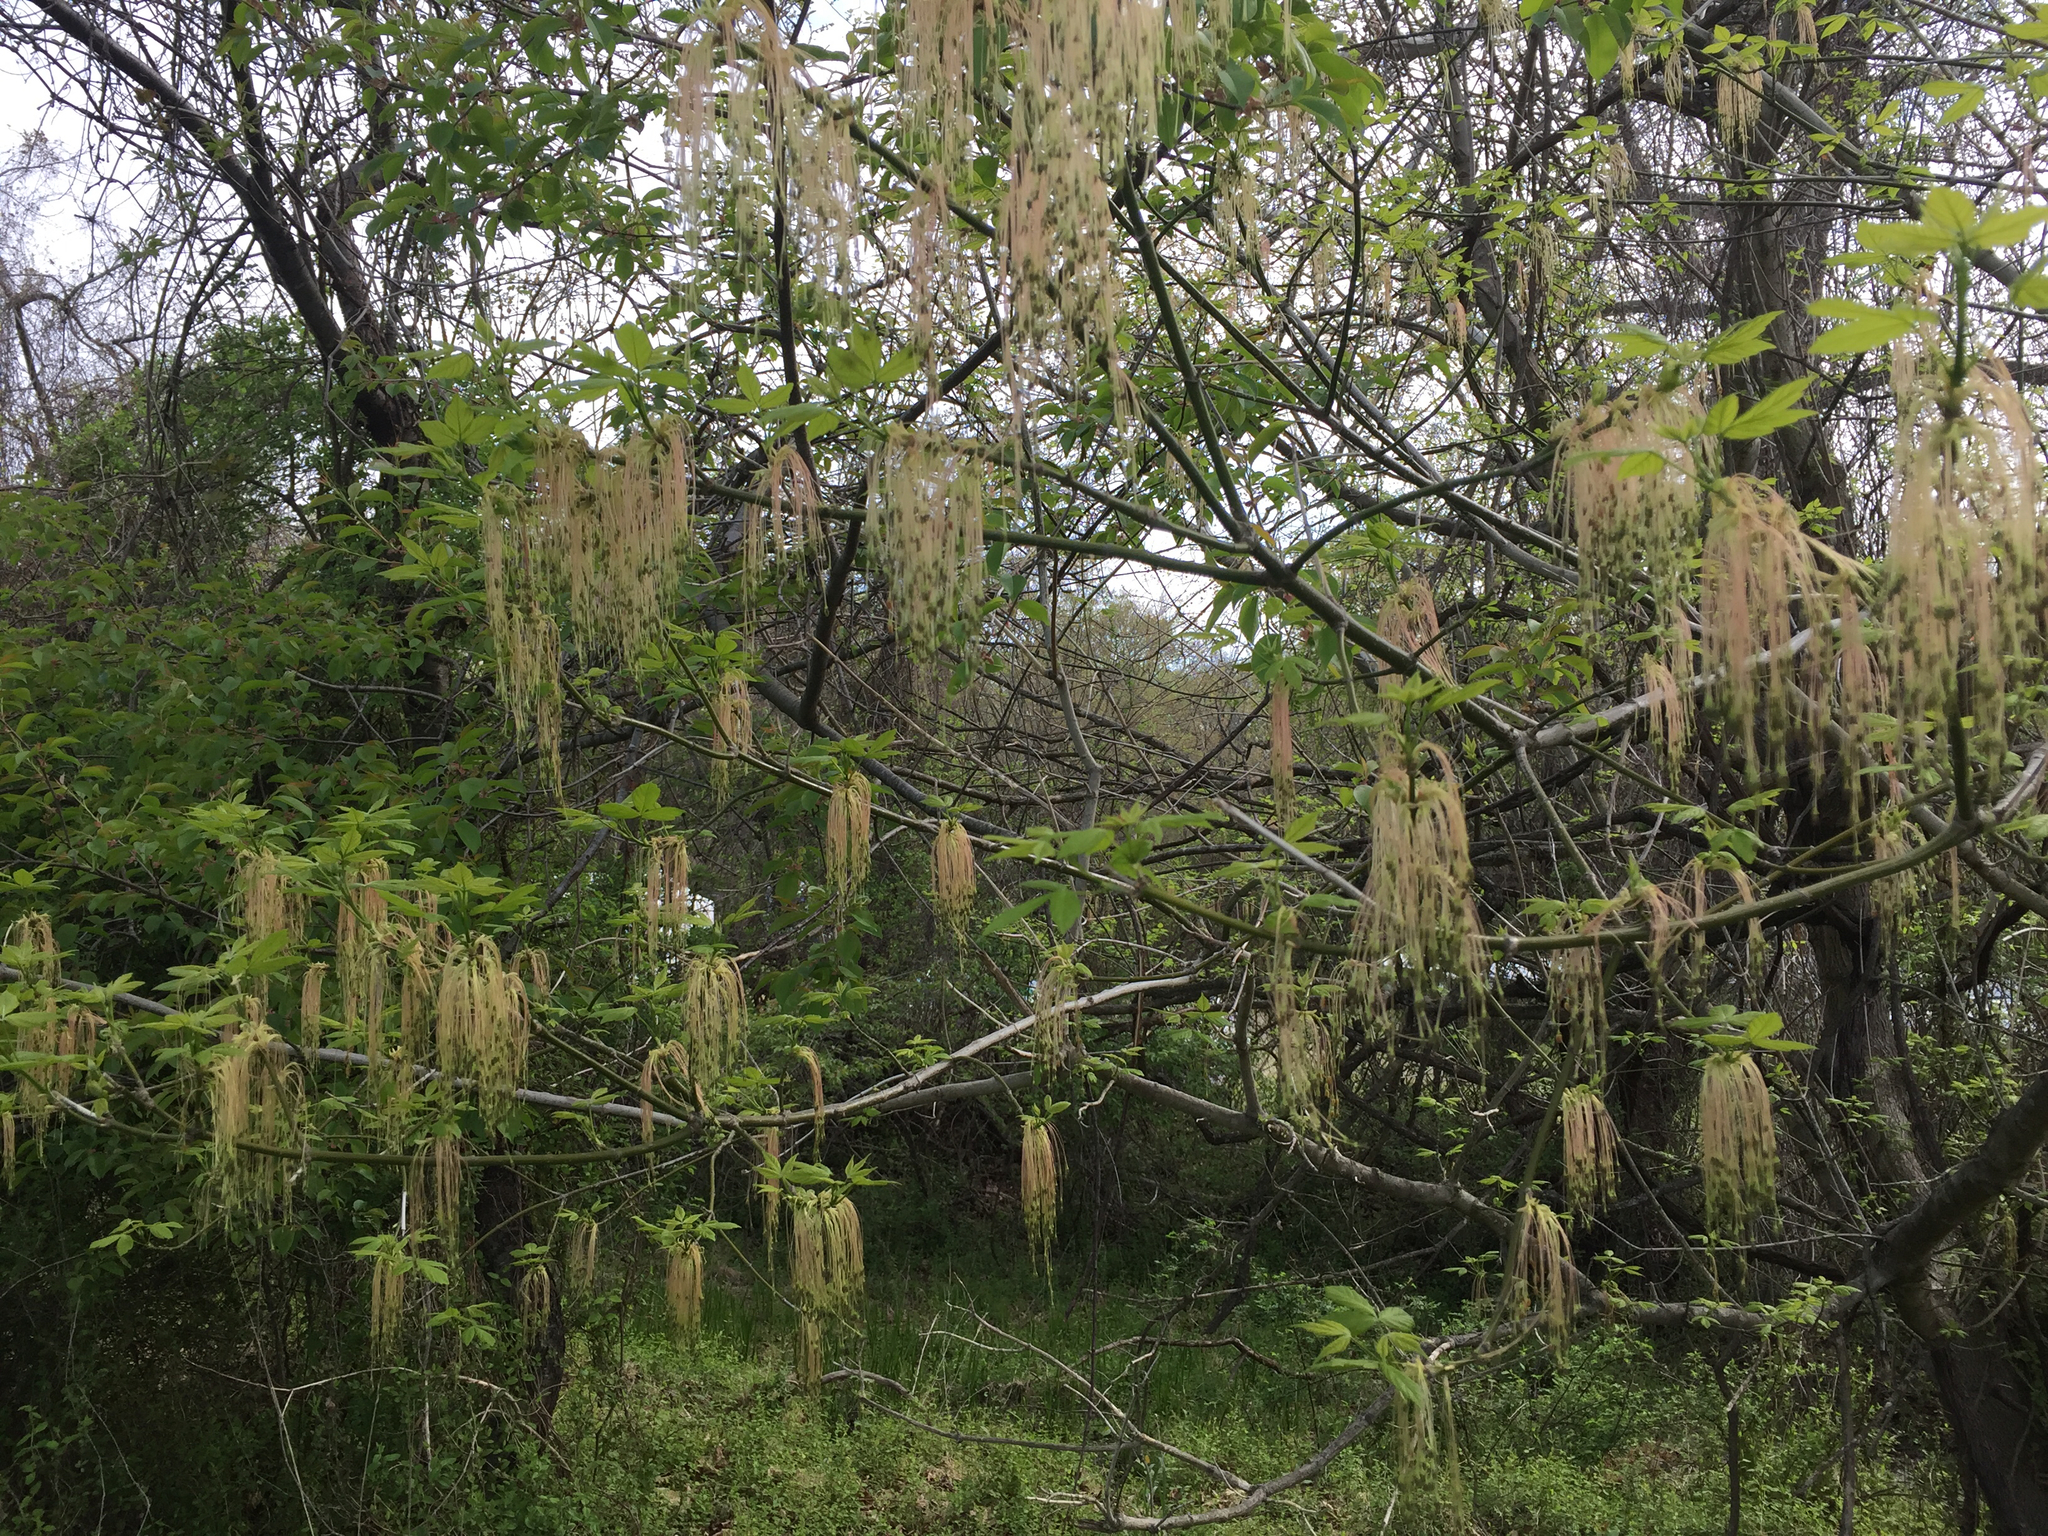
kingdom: Plantae
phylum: Tracheophyta
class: Magnoliopsida
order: Sapindales
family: Sapindaceae
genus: Acer
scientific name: Acer negundo
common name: Ashleaf maple
